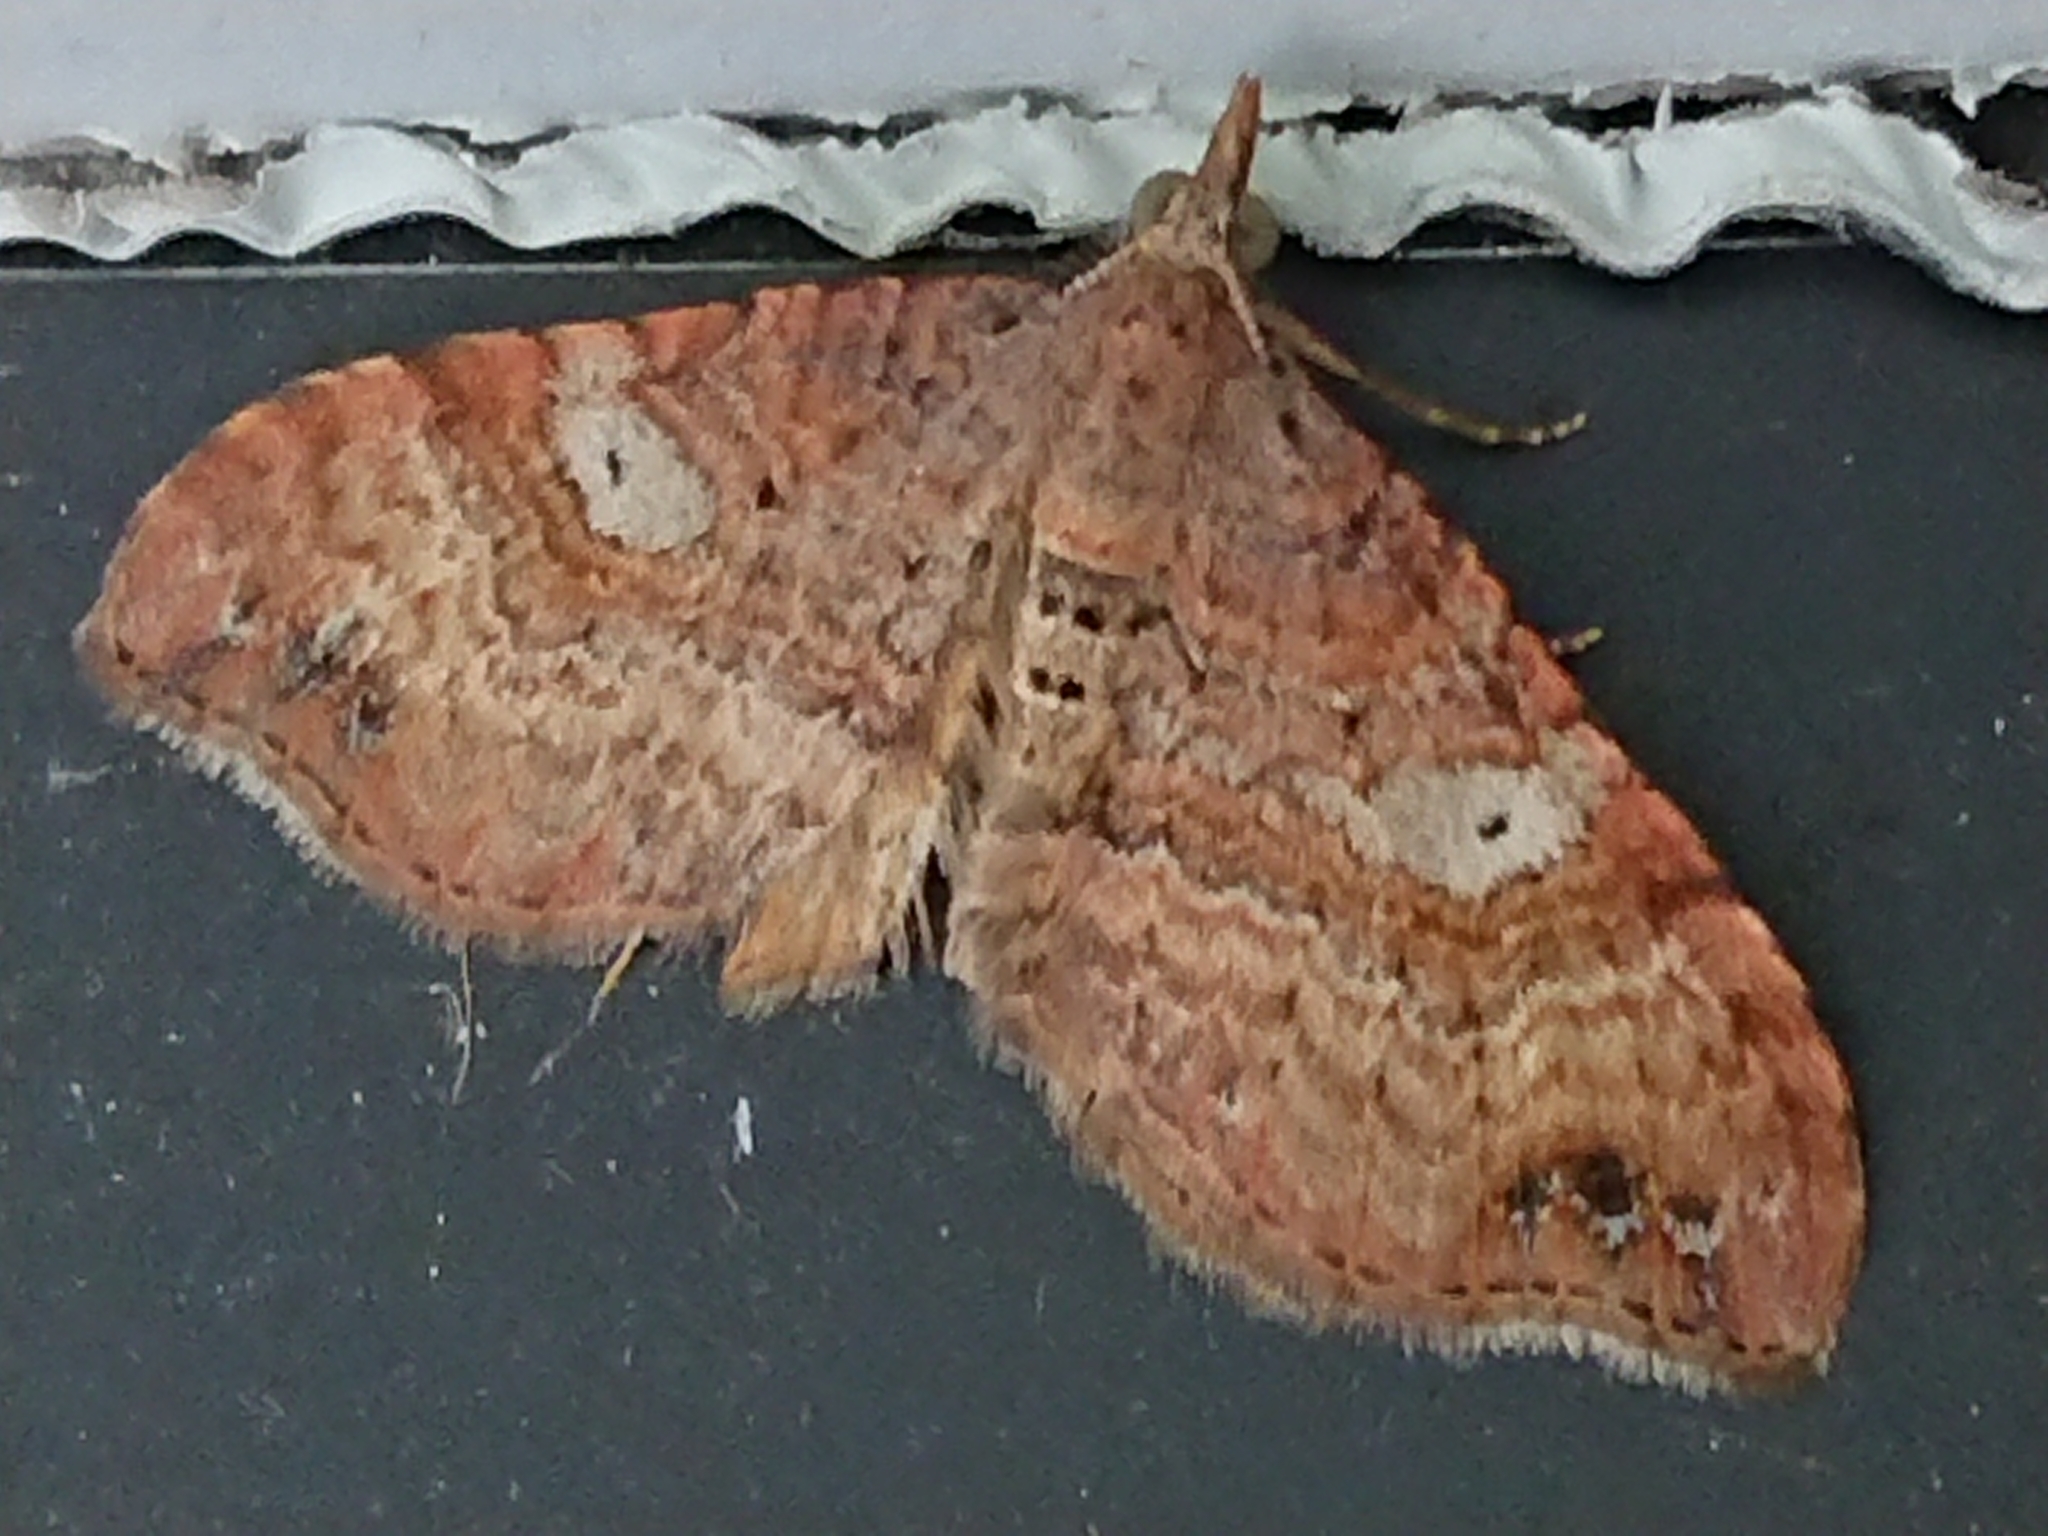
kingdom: Animalia
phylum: Arthropoda
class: Insecta
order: Lepidoptera
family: Geometridae
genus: Homodotis
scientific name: Homodotis megaspilata
